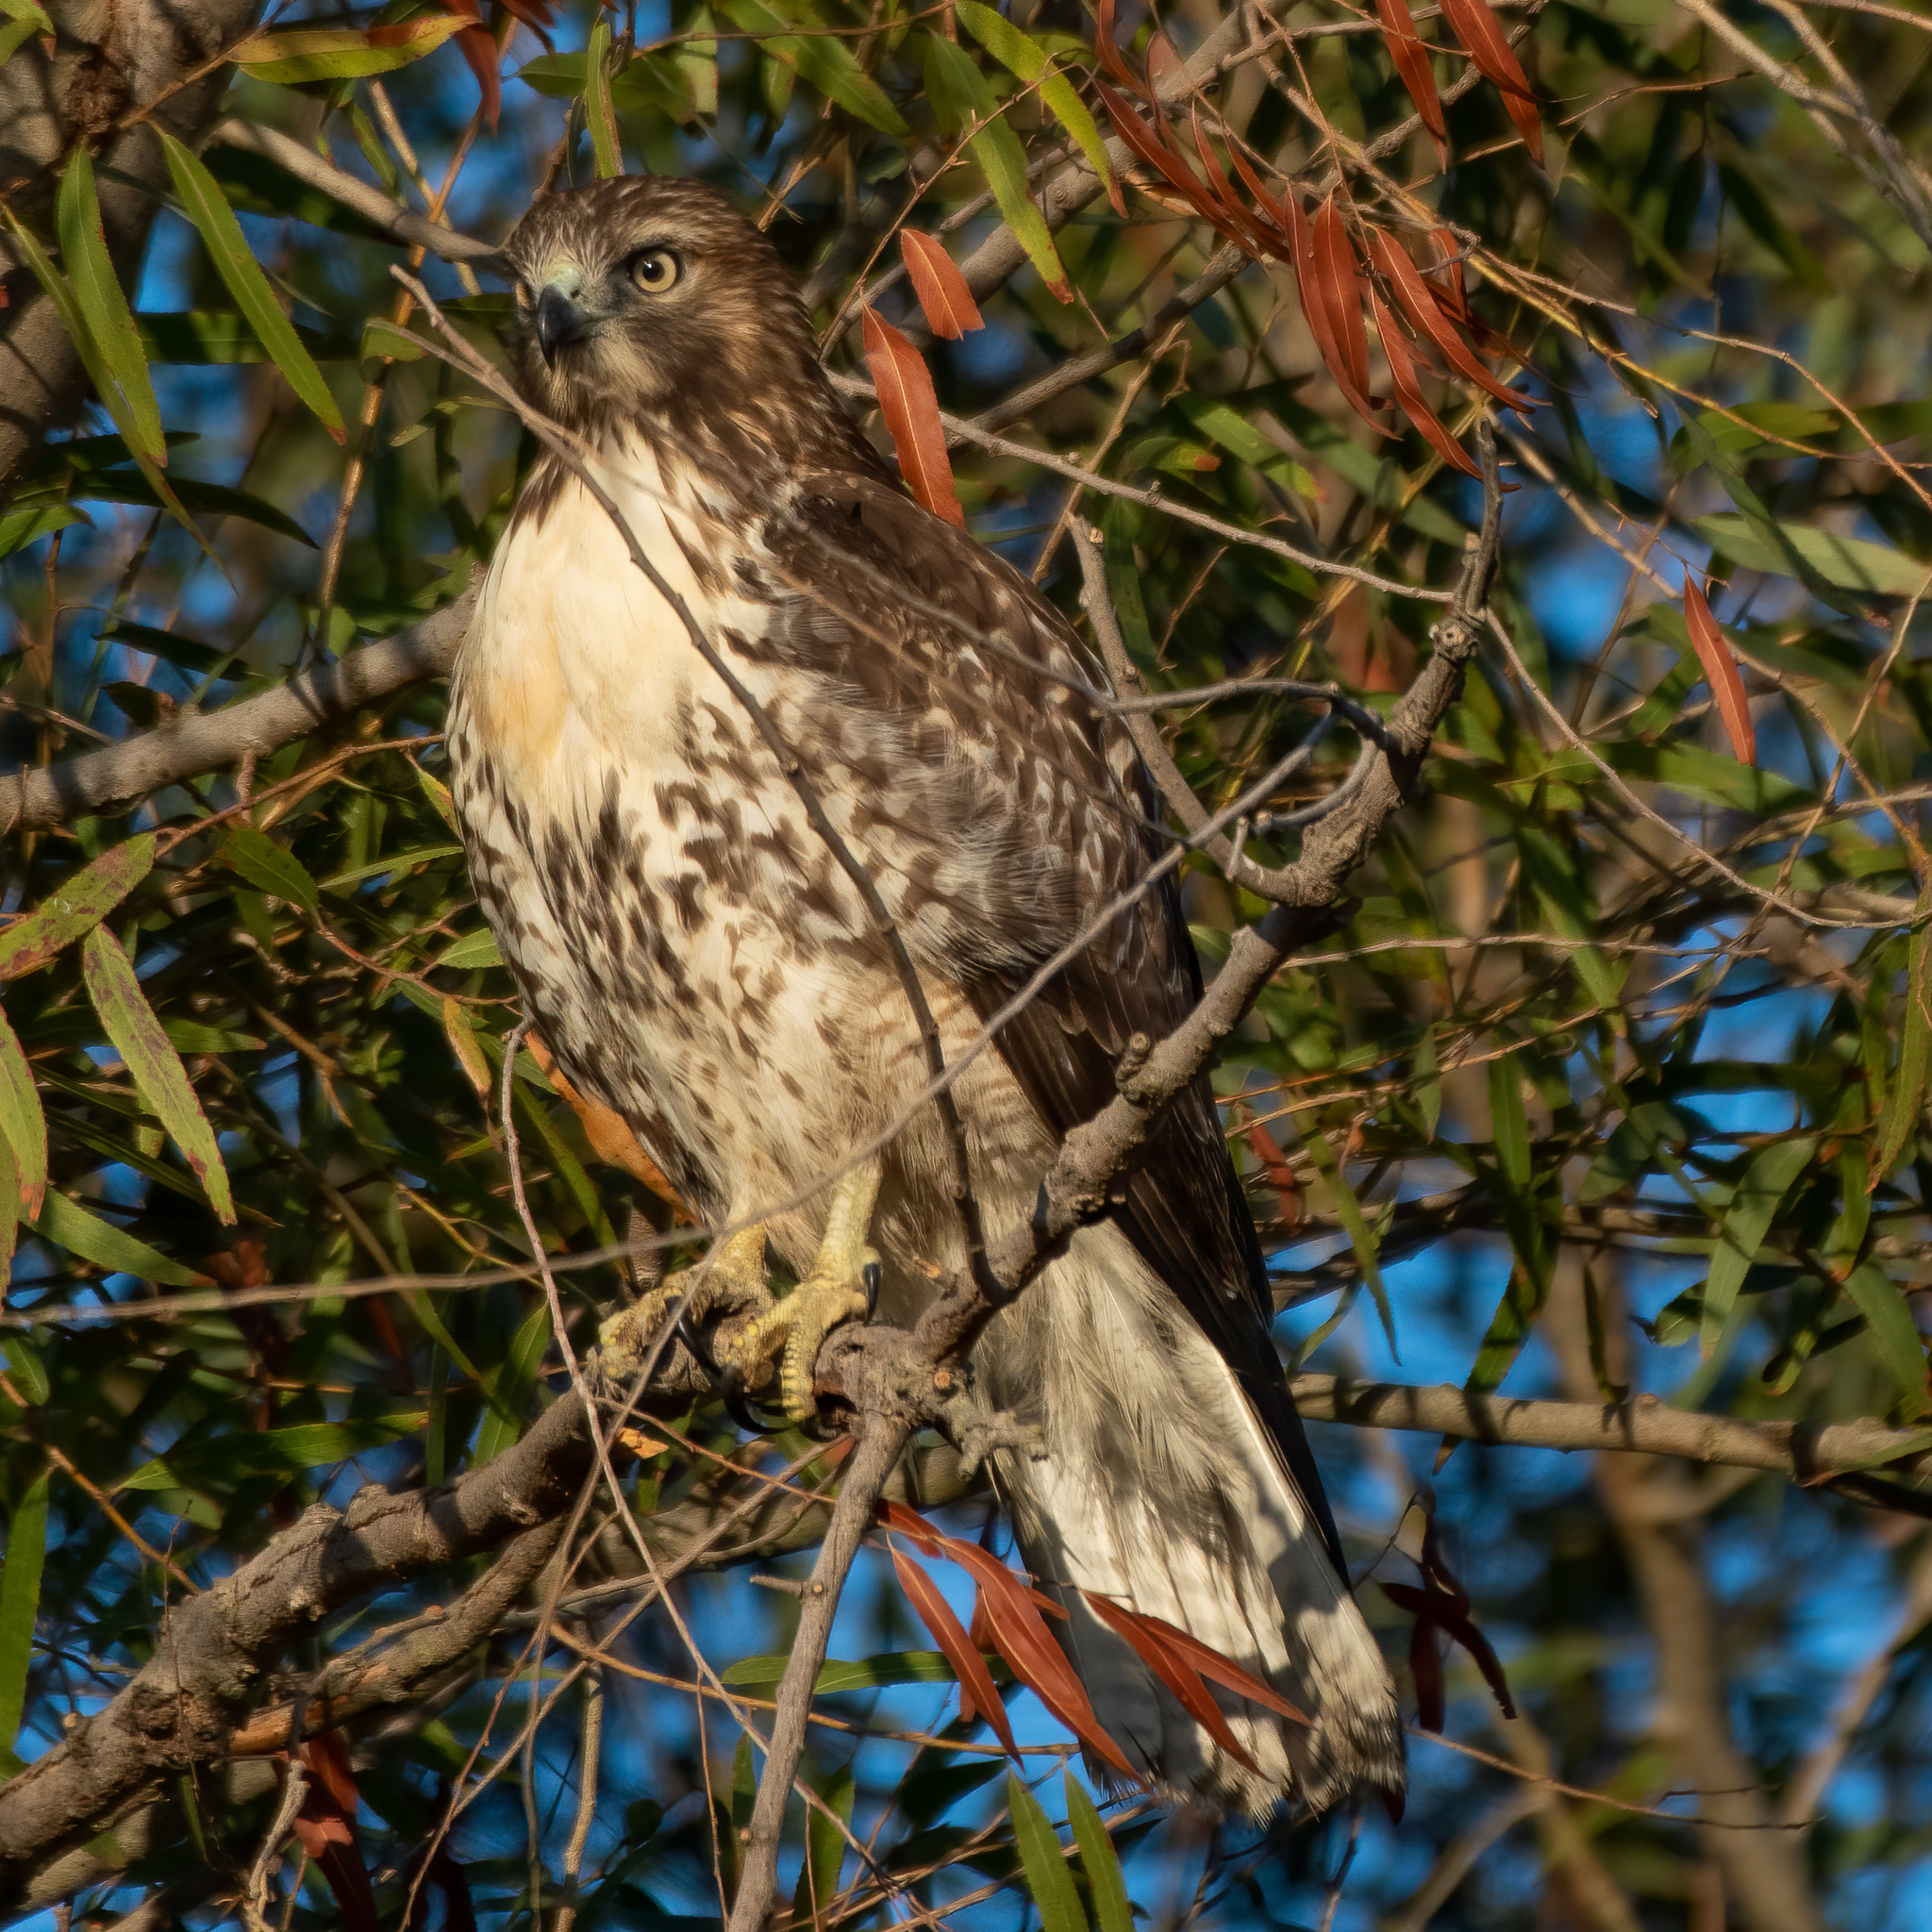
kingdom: Animalia
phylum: Chordata
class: Aves
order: Accipitriformes
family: Accipitridae
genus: Buteo
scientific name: Buteo jamaicensis
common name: Red-tailed hawk
